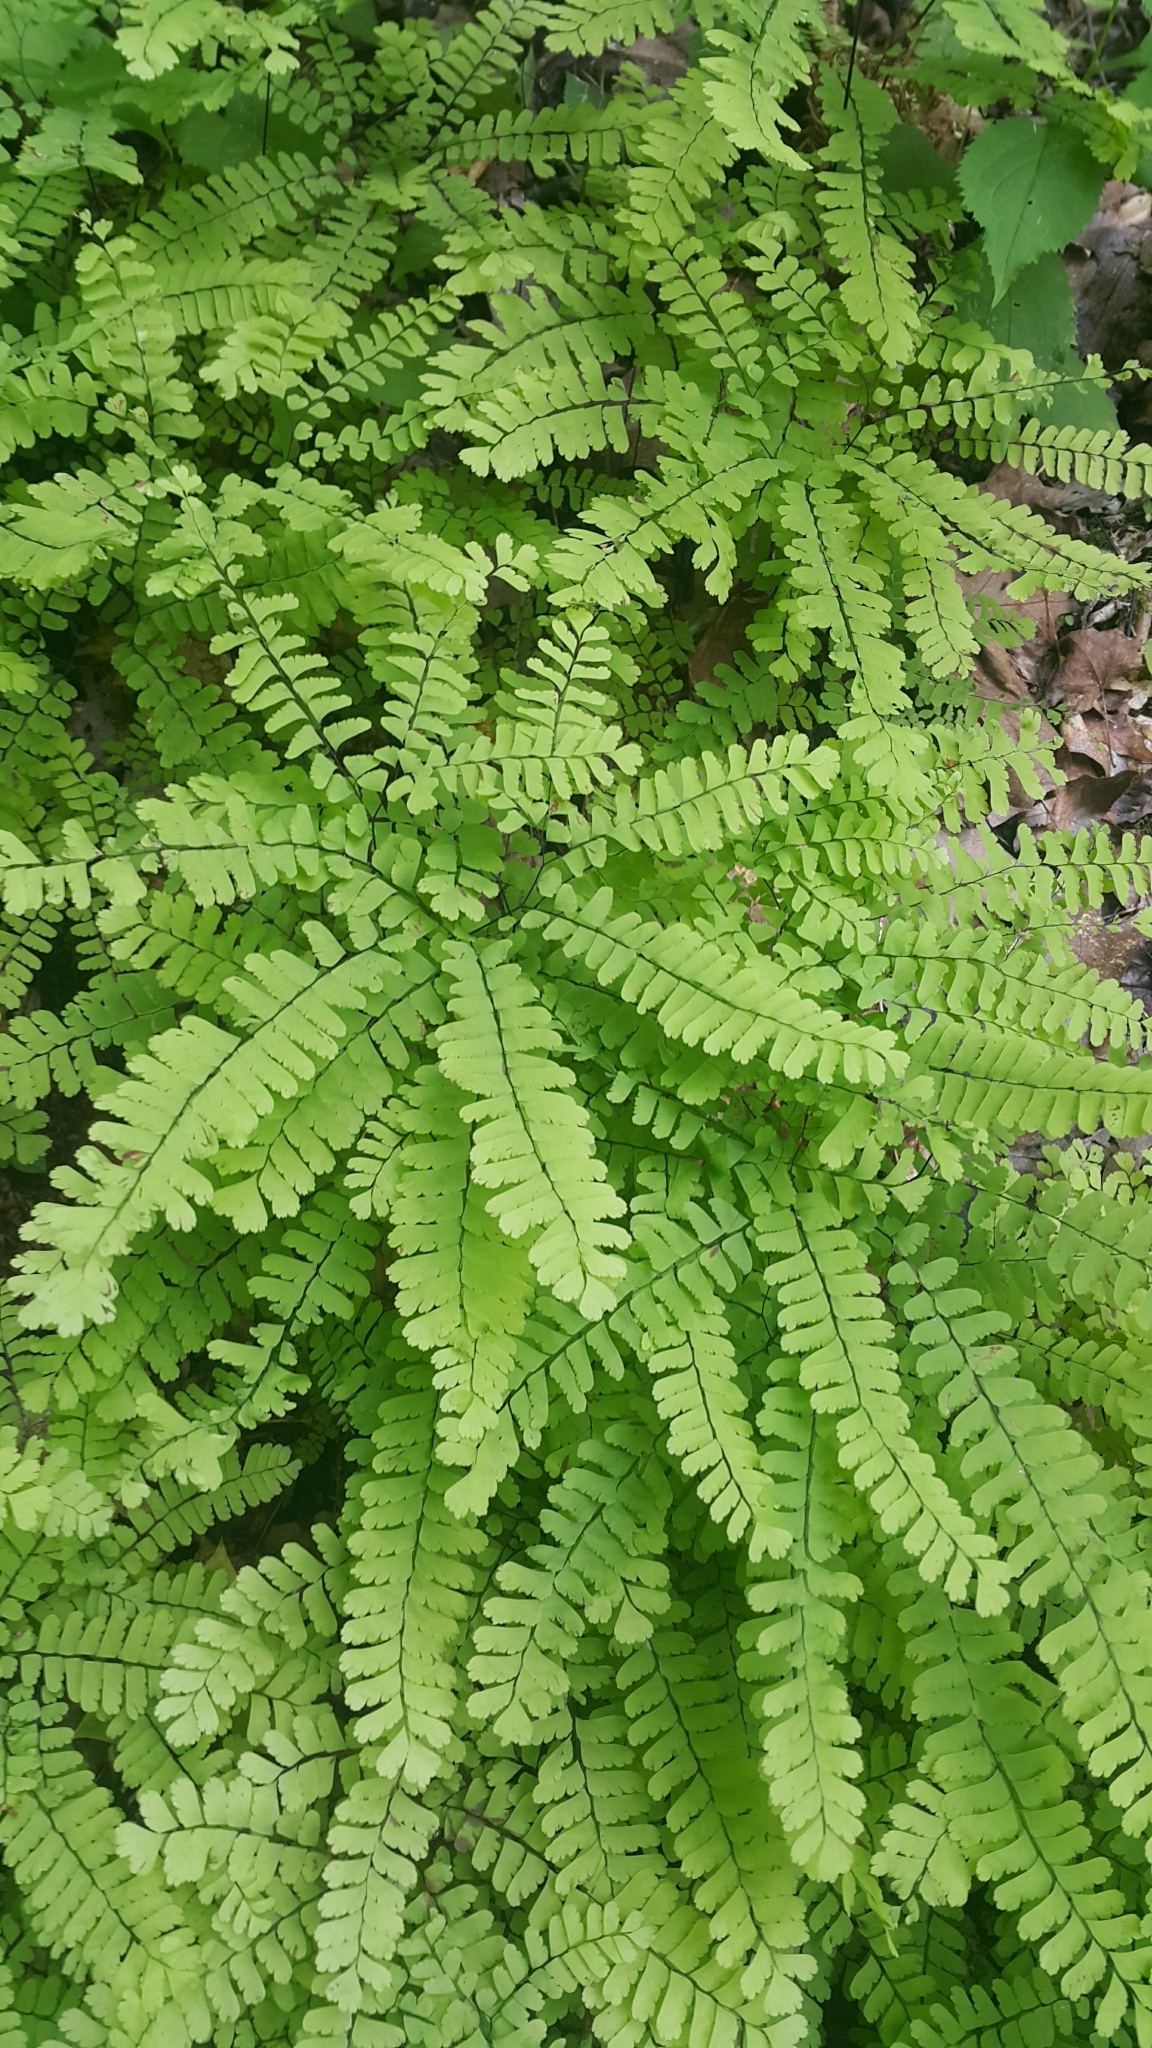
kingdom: Plantae
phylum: Tracheophyta
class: Polypodiopsida
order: Polypodiales
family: Pteridaceae
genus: Adiantum
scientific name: Adiantum pedatum
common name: Five-finger fern
